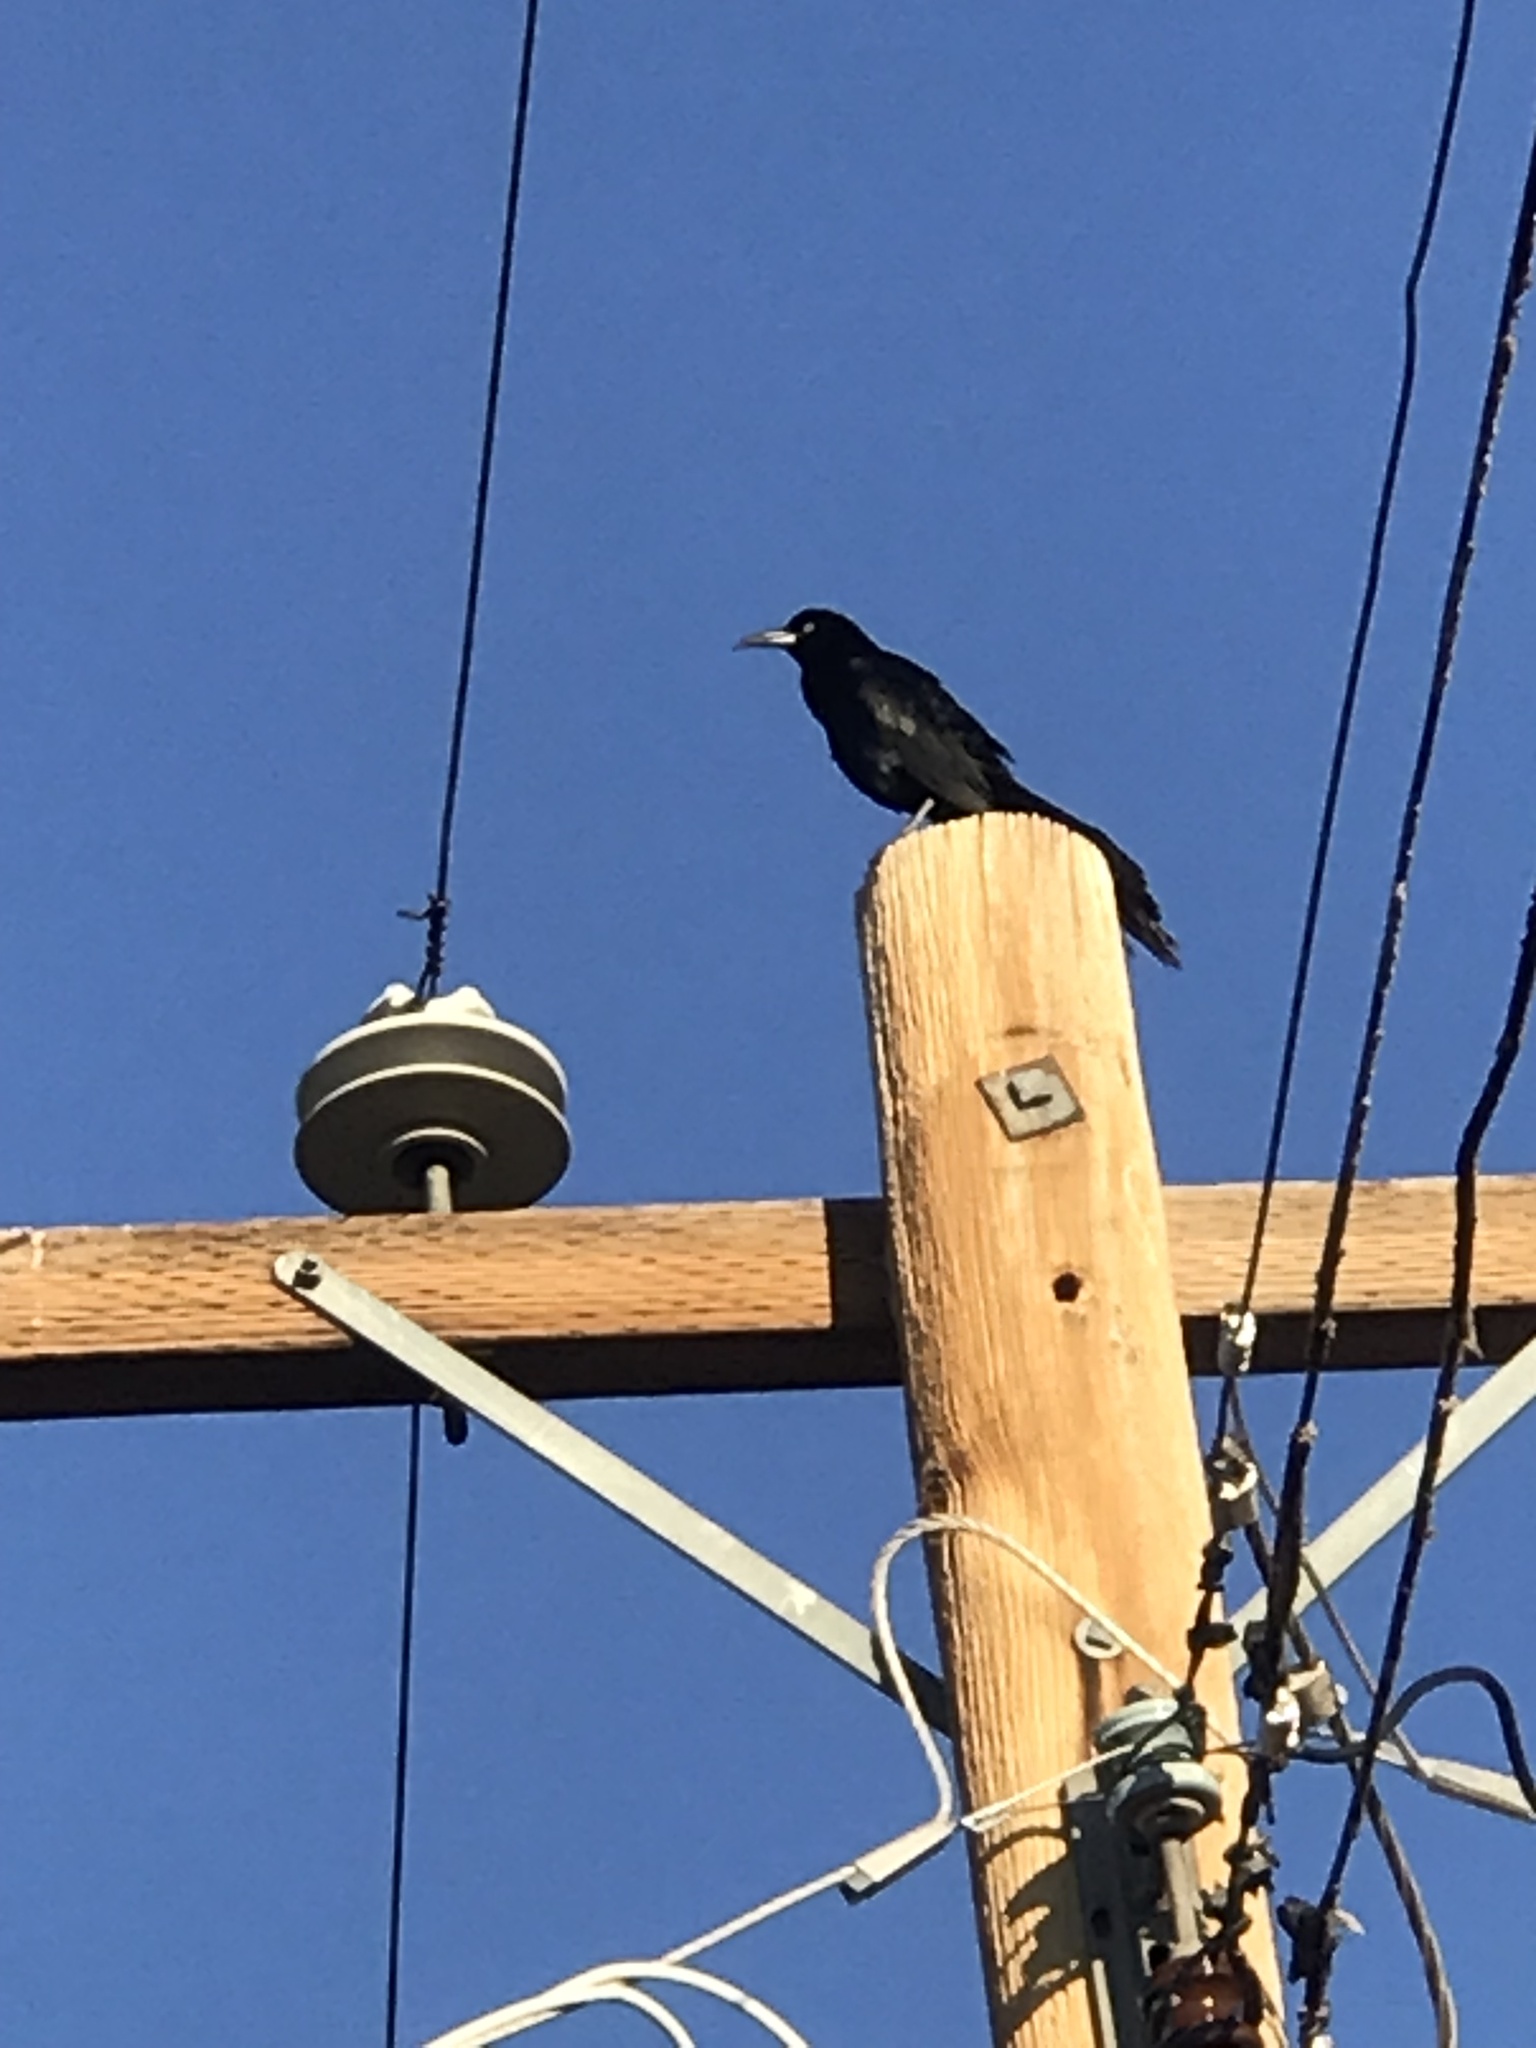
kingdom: Animalia
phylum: Chordata
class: Aves
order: Passeriformes
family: Icteridae
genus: Quiscalus
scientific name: Quiscalus mexicanus
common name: Great-tailed grackle
